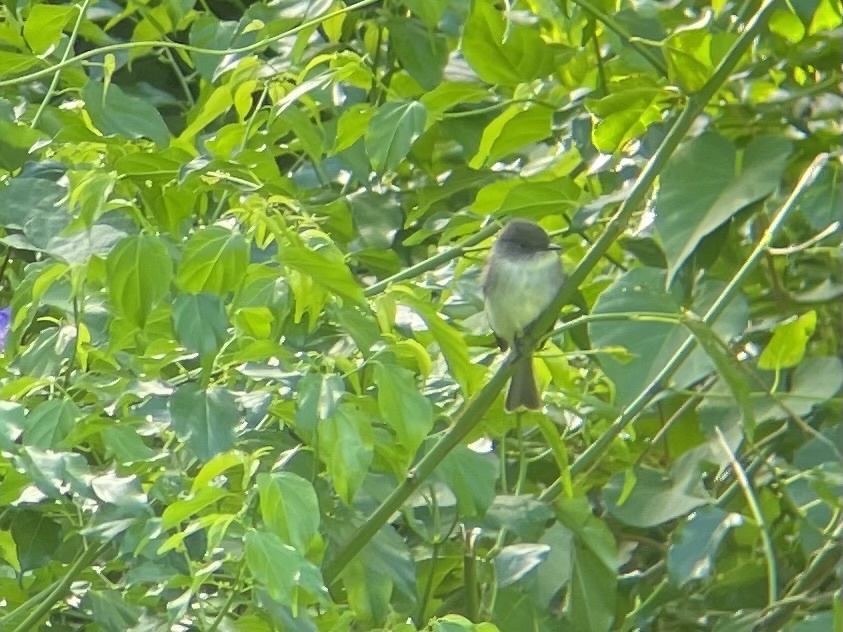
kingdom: Animalia
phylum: Chordata
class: Aves
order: Passeriformes
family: Tyrannidae
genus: Sayornis
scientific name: Sayornis phoebe
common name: Eastern phoebe
